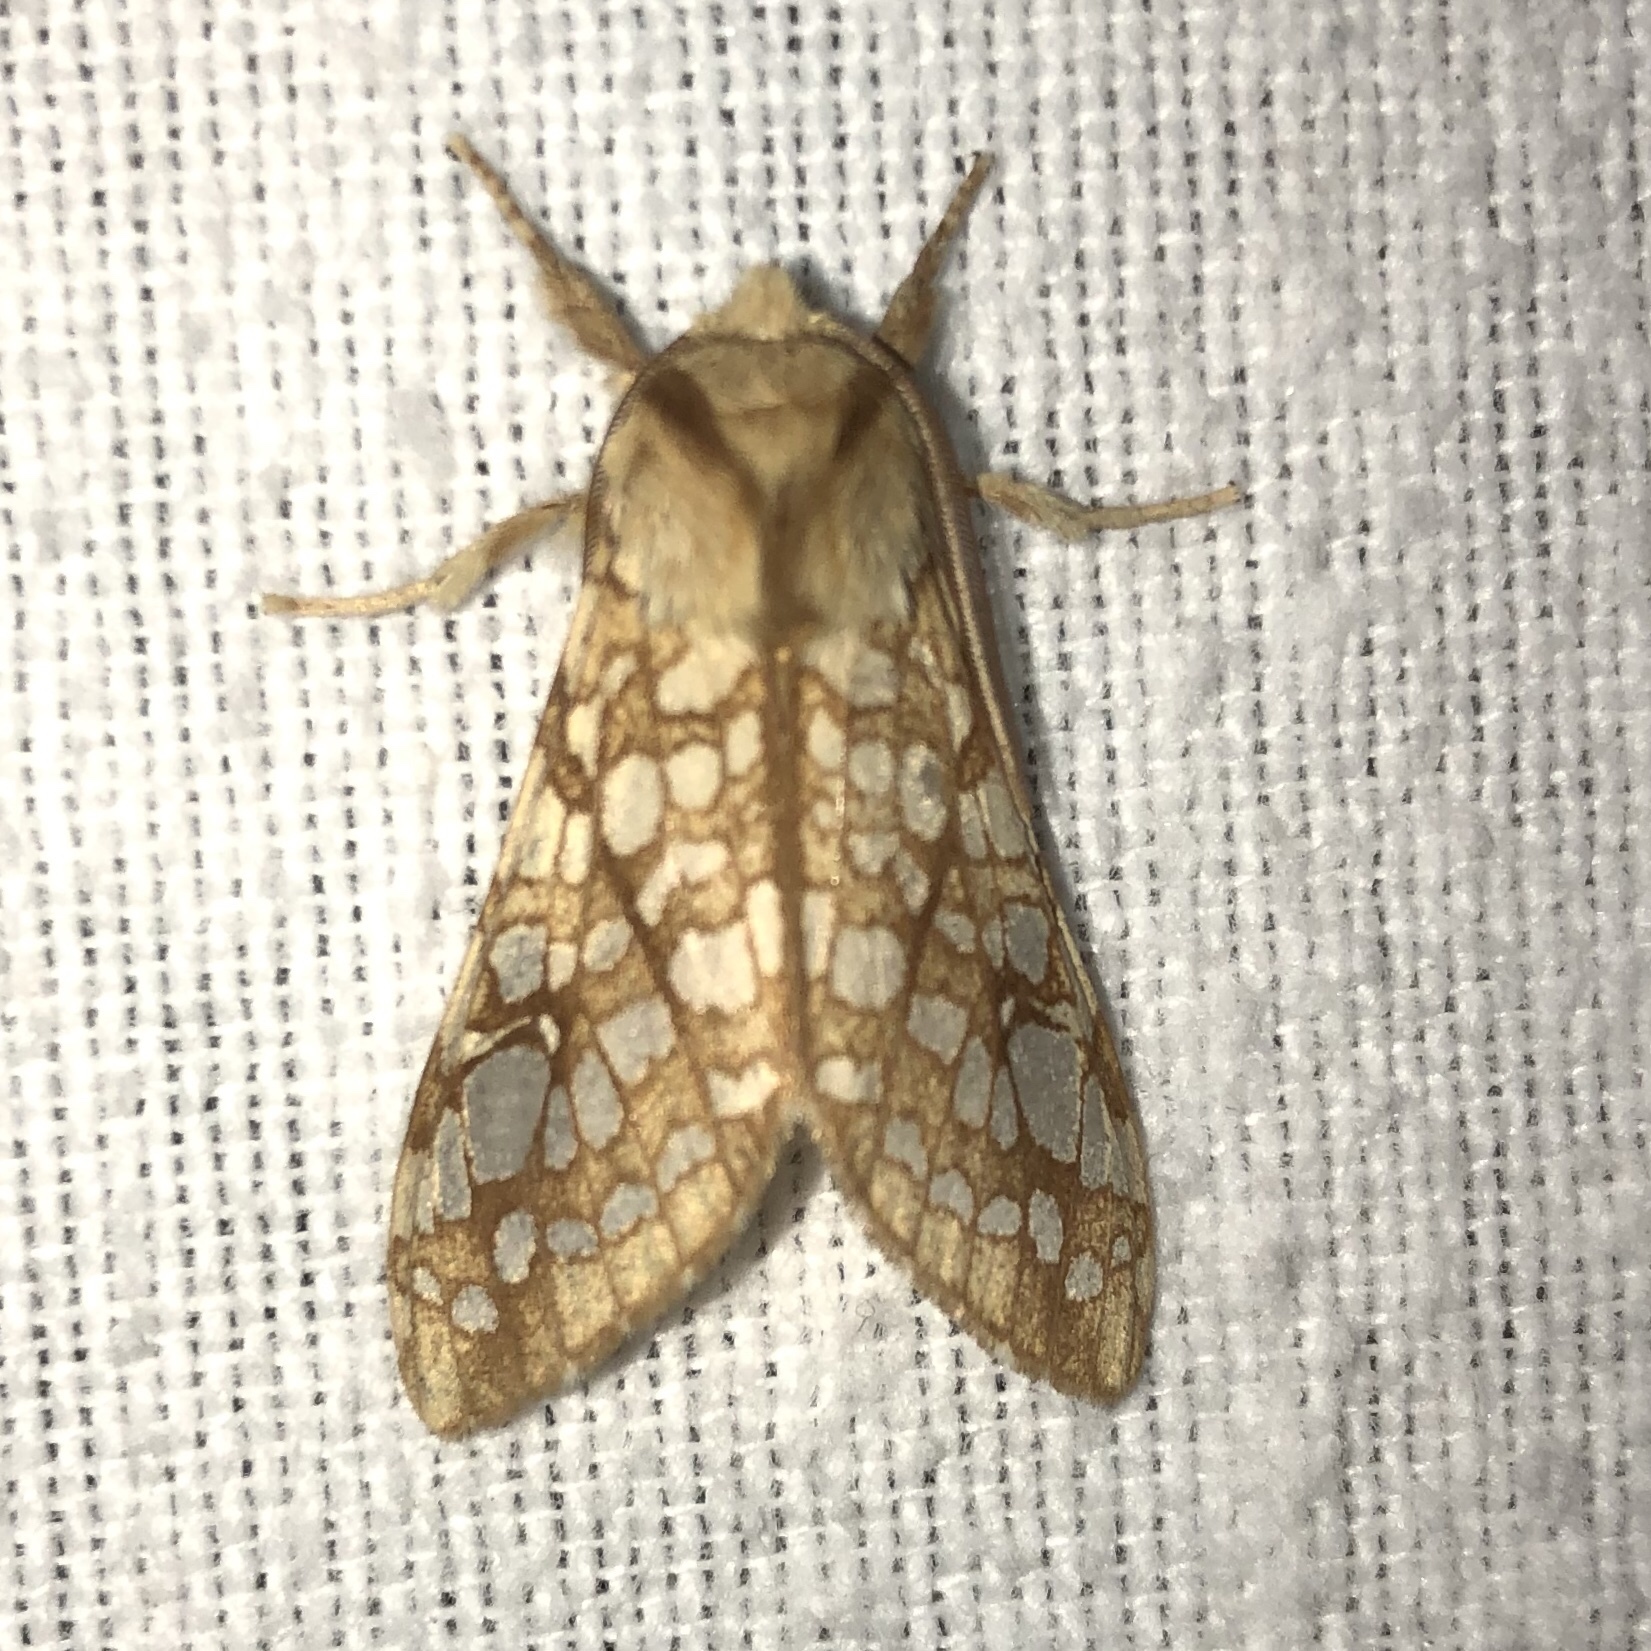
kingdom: Animalia
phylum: Arthropoda
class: Insecta
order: Lepidoptera
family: Erebidae
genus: Lophocampa
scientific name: Lophocampa caryae
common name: Hickory tussock moth
